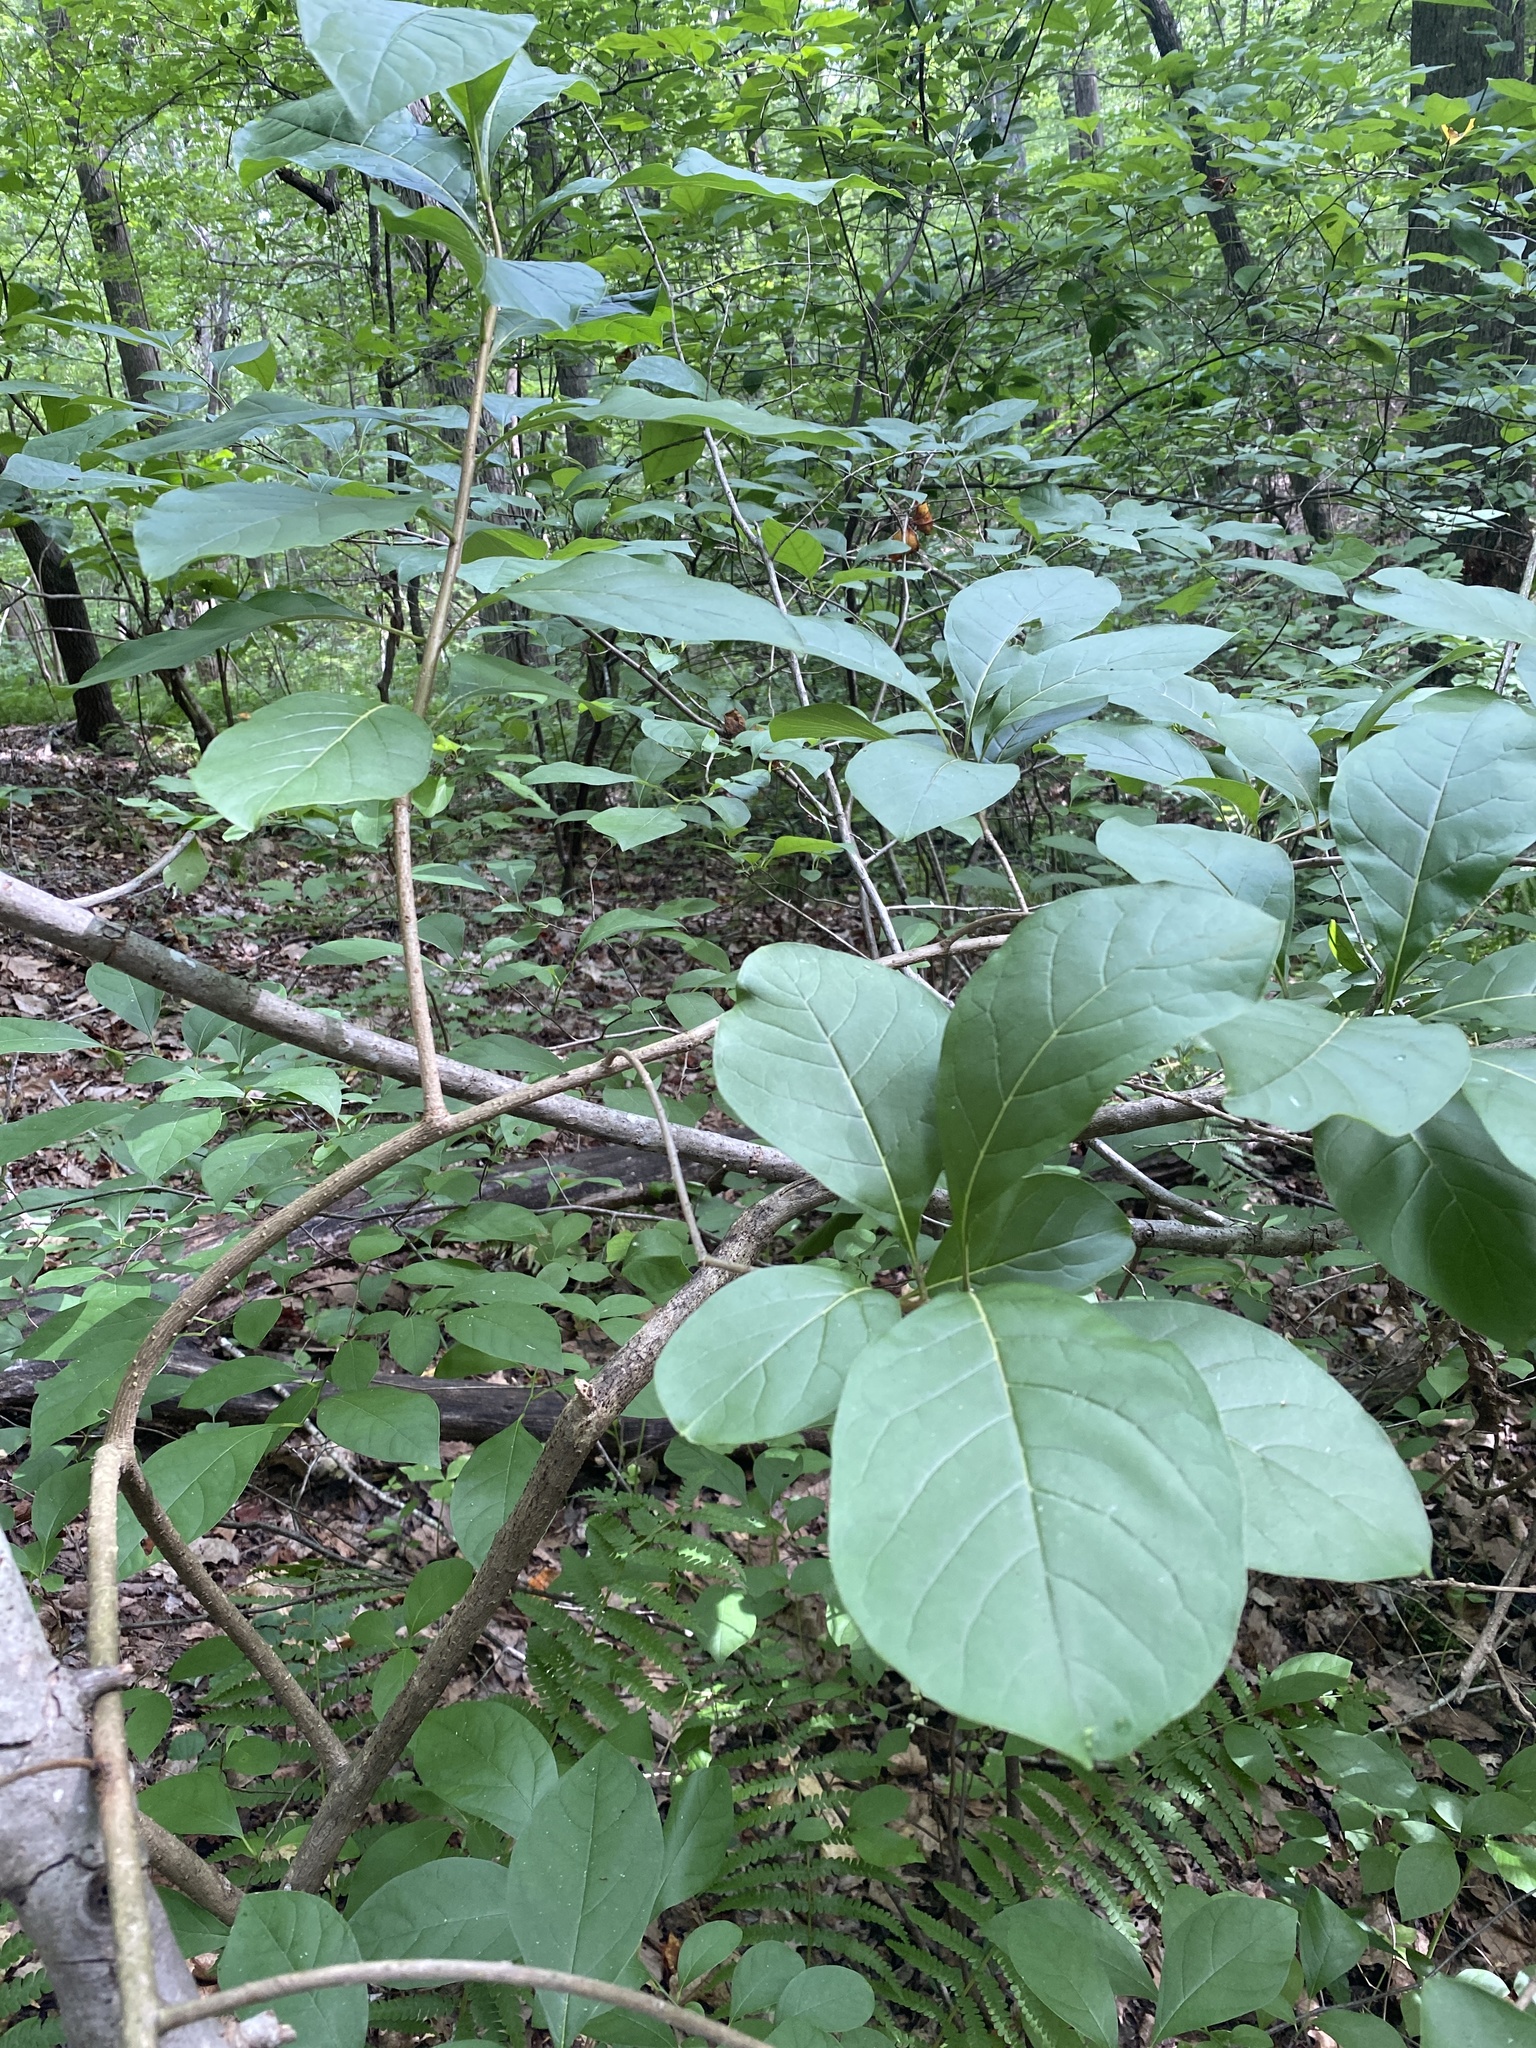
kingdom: Plantae
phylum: Tracheophyta
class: Magnoliopsida
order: Lamiales
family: Oleaceae
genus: Chionanthus
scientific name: Chionanthus virginicus
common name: American fringetree
